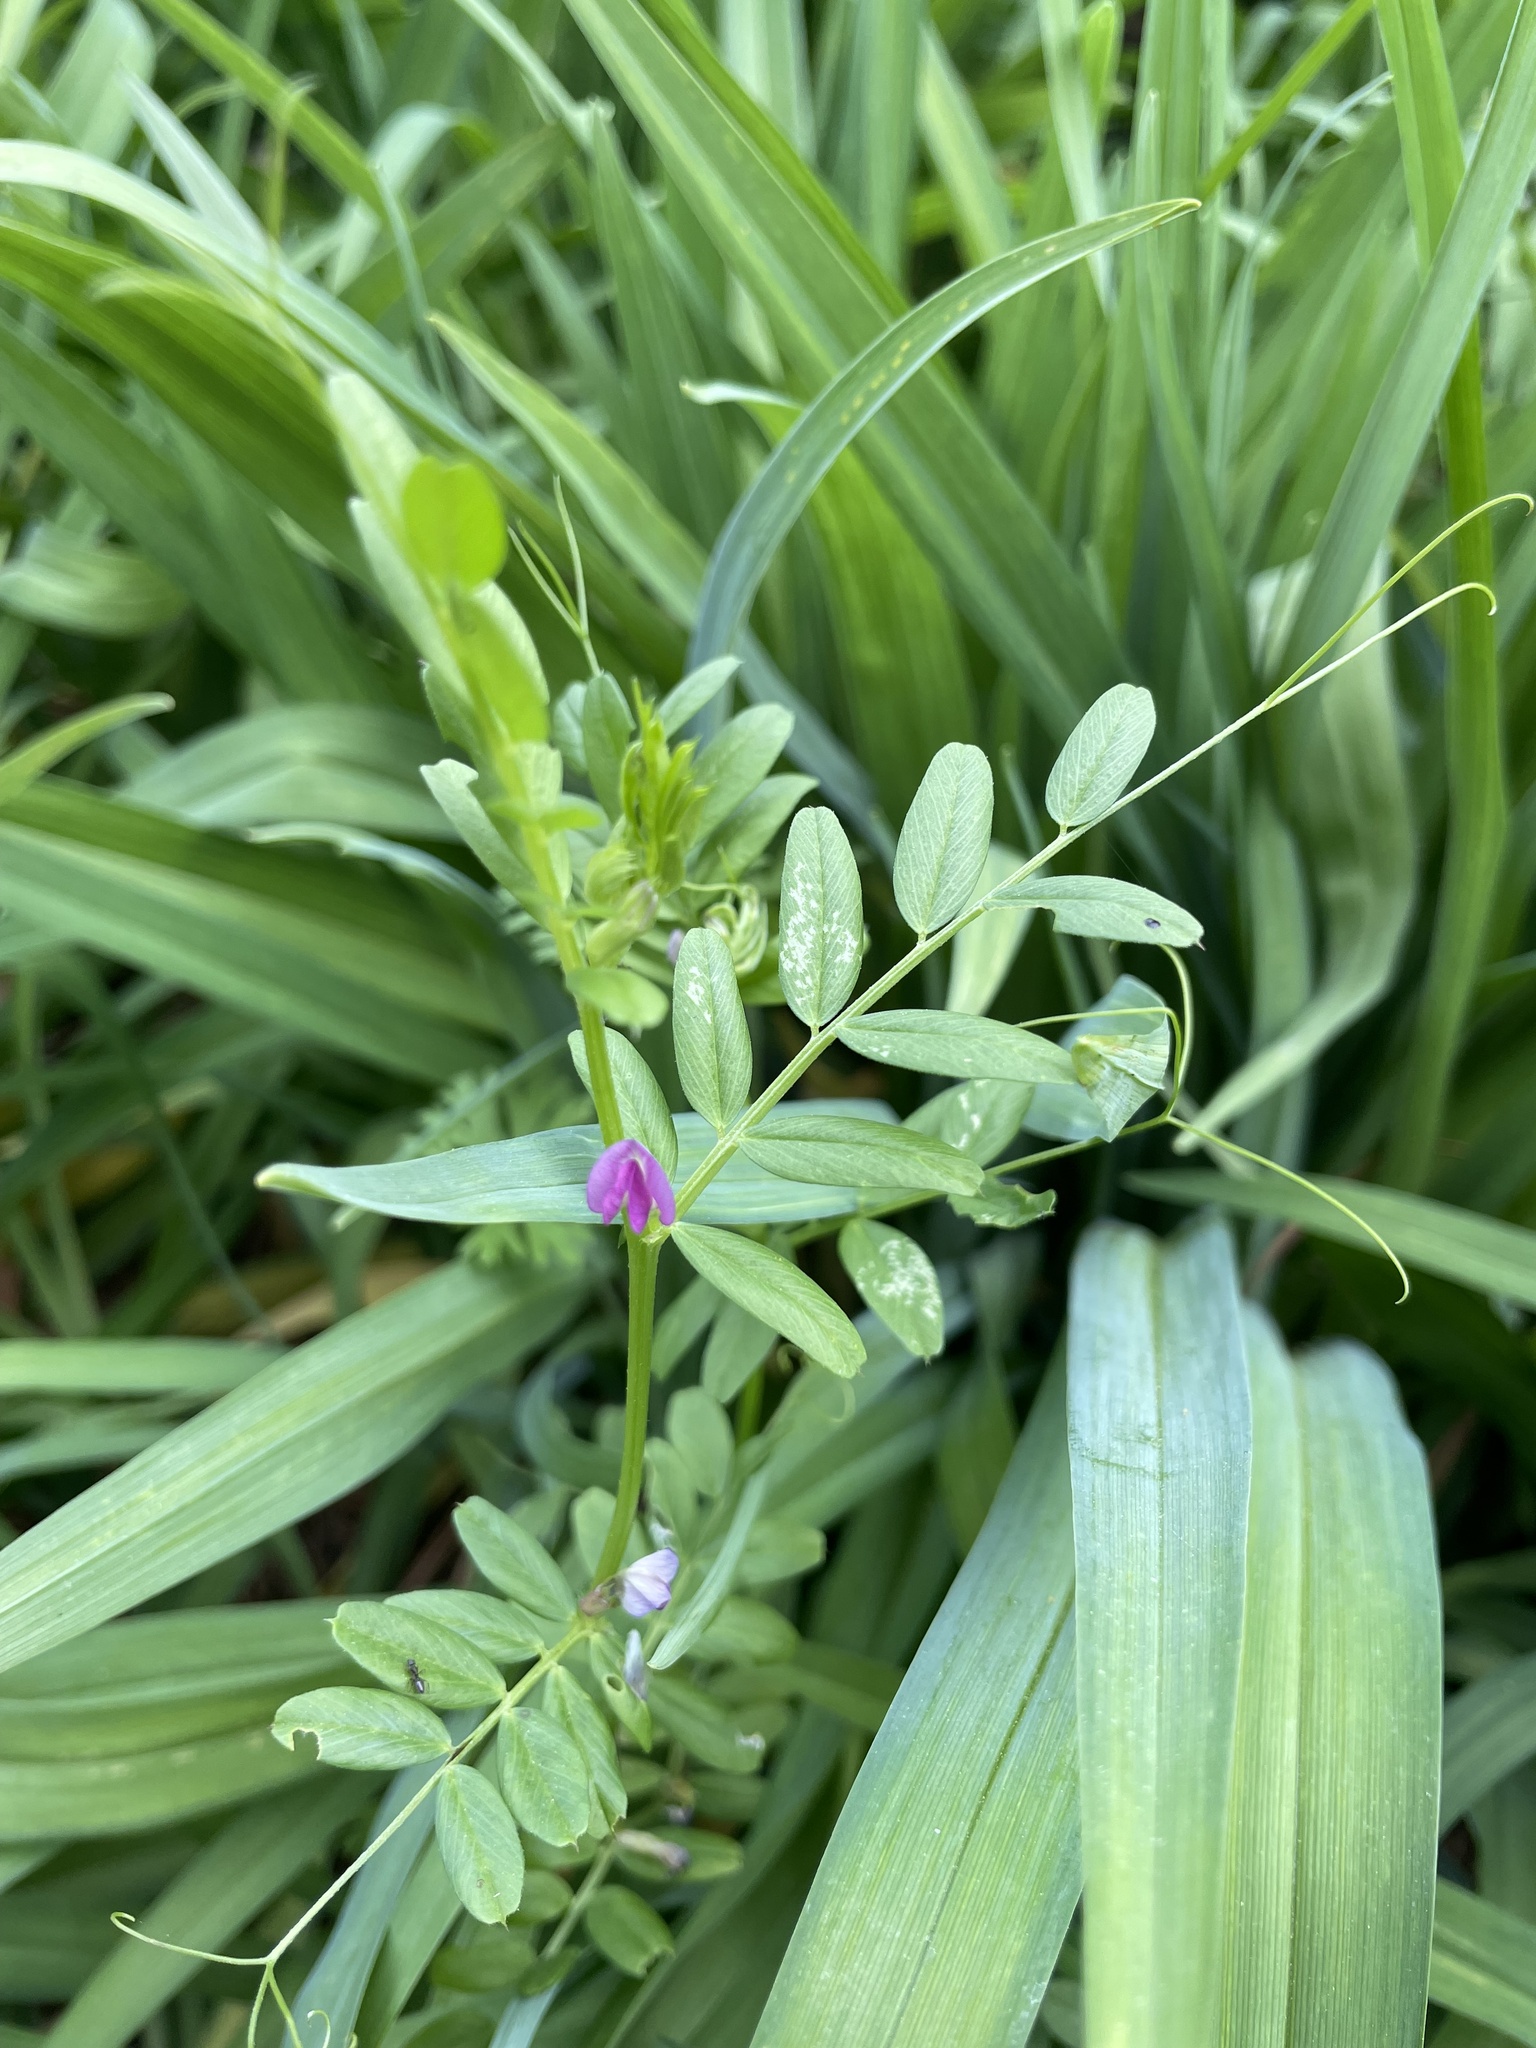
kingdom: Plantae
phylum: Tracheophyta
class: Magnoliopsida
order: Fabales
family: Fabaceae
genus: Vicia
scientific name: Vicia sativa
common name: Garden vetch
